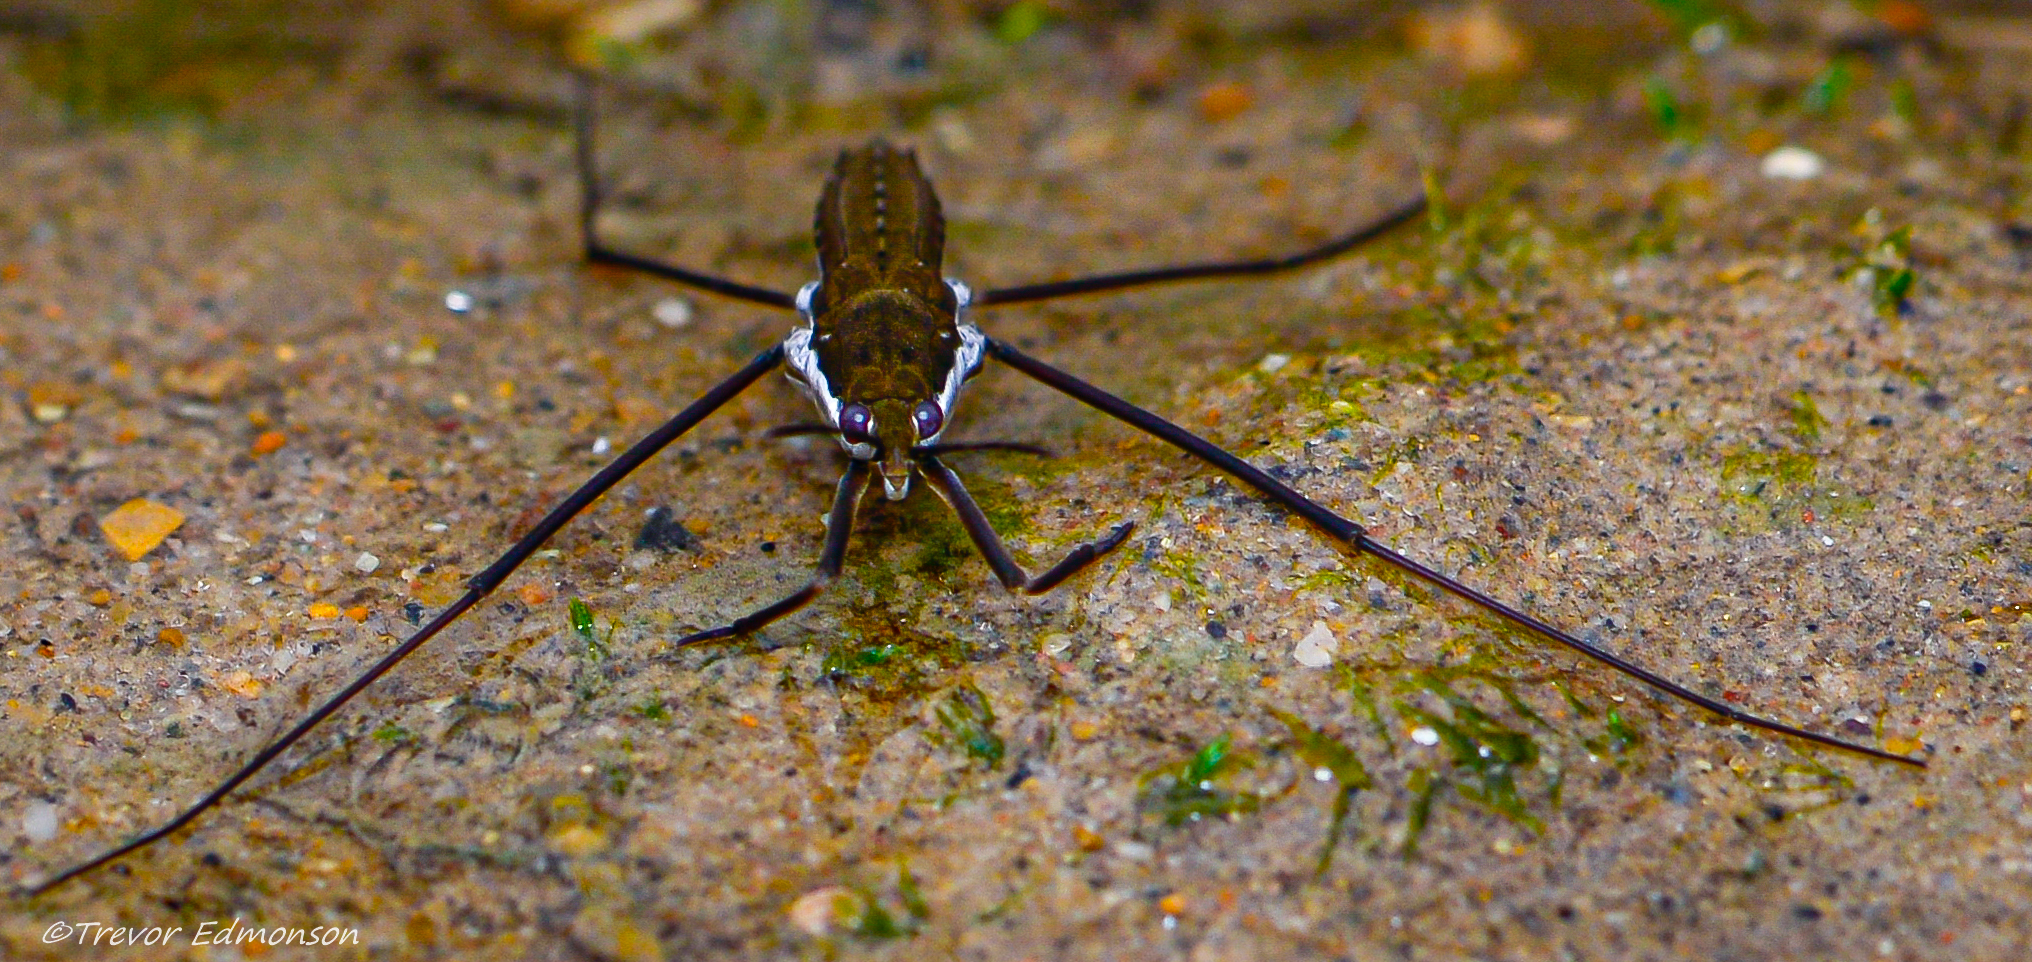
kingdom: Animalia
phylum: Arthropoda
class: Insecta
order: Hemiptera
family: Gerridae
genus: Aquarius
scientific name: Aquarius remigis
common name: Common water strider
